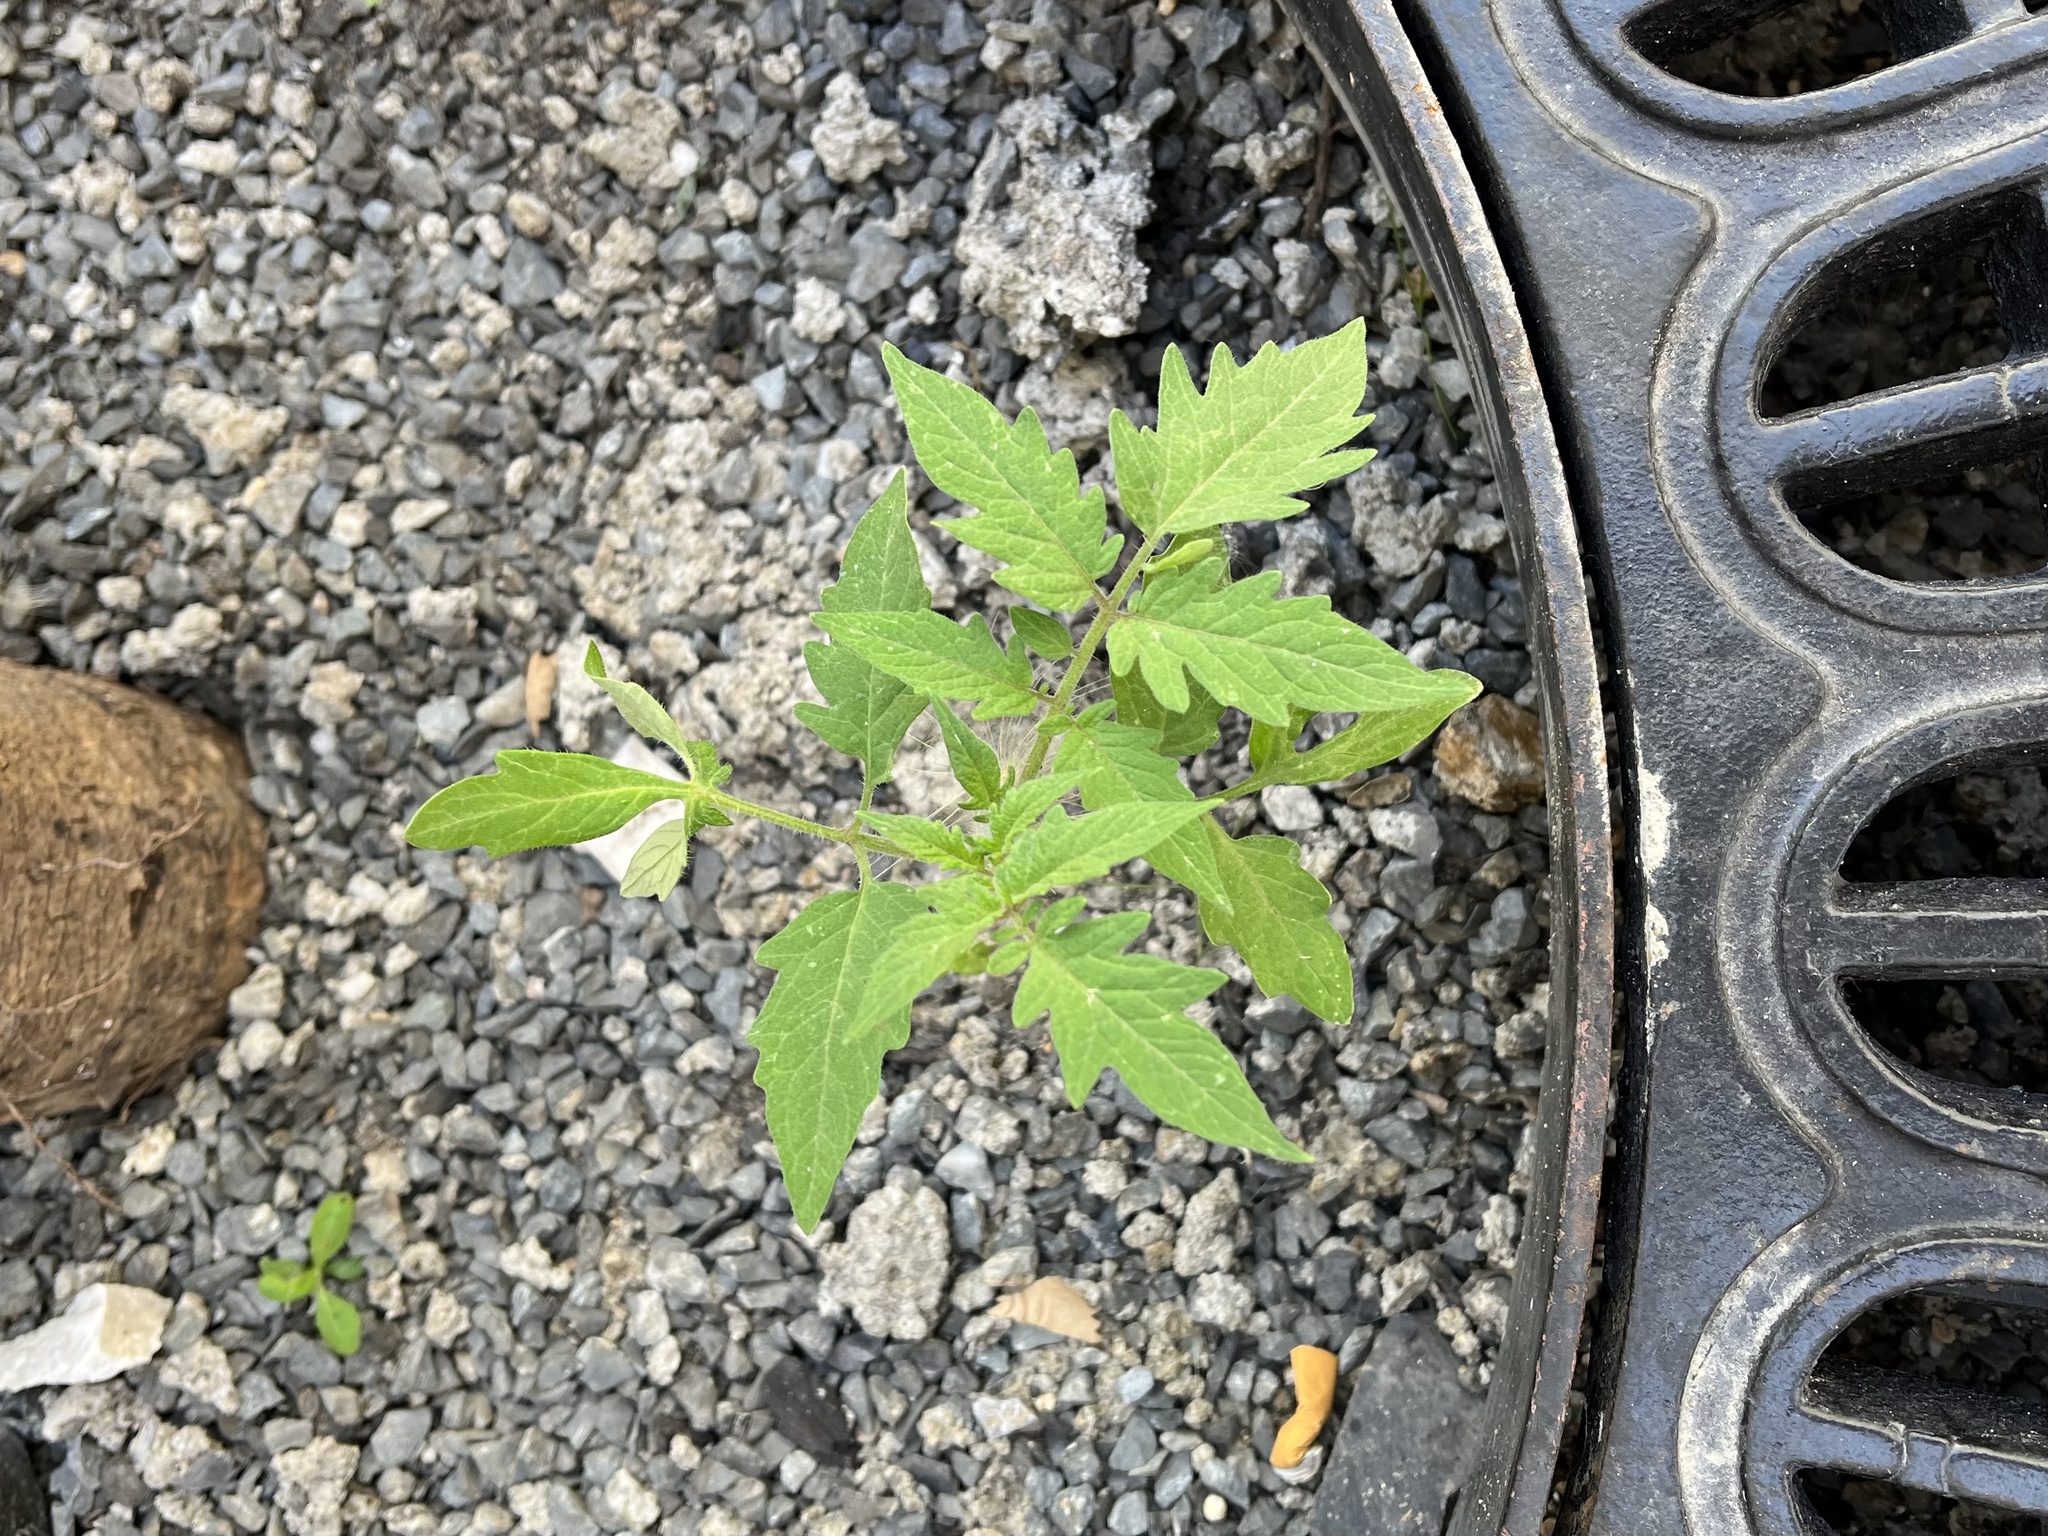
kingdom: Plantae
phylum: Tracheophyta
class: Magnoliopsida
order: Solanales
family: Solanaceae
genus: Solanum
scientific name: Solanum lycopersicum
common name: Garden tomato
